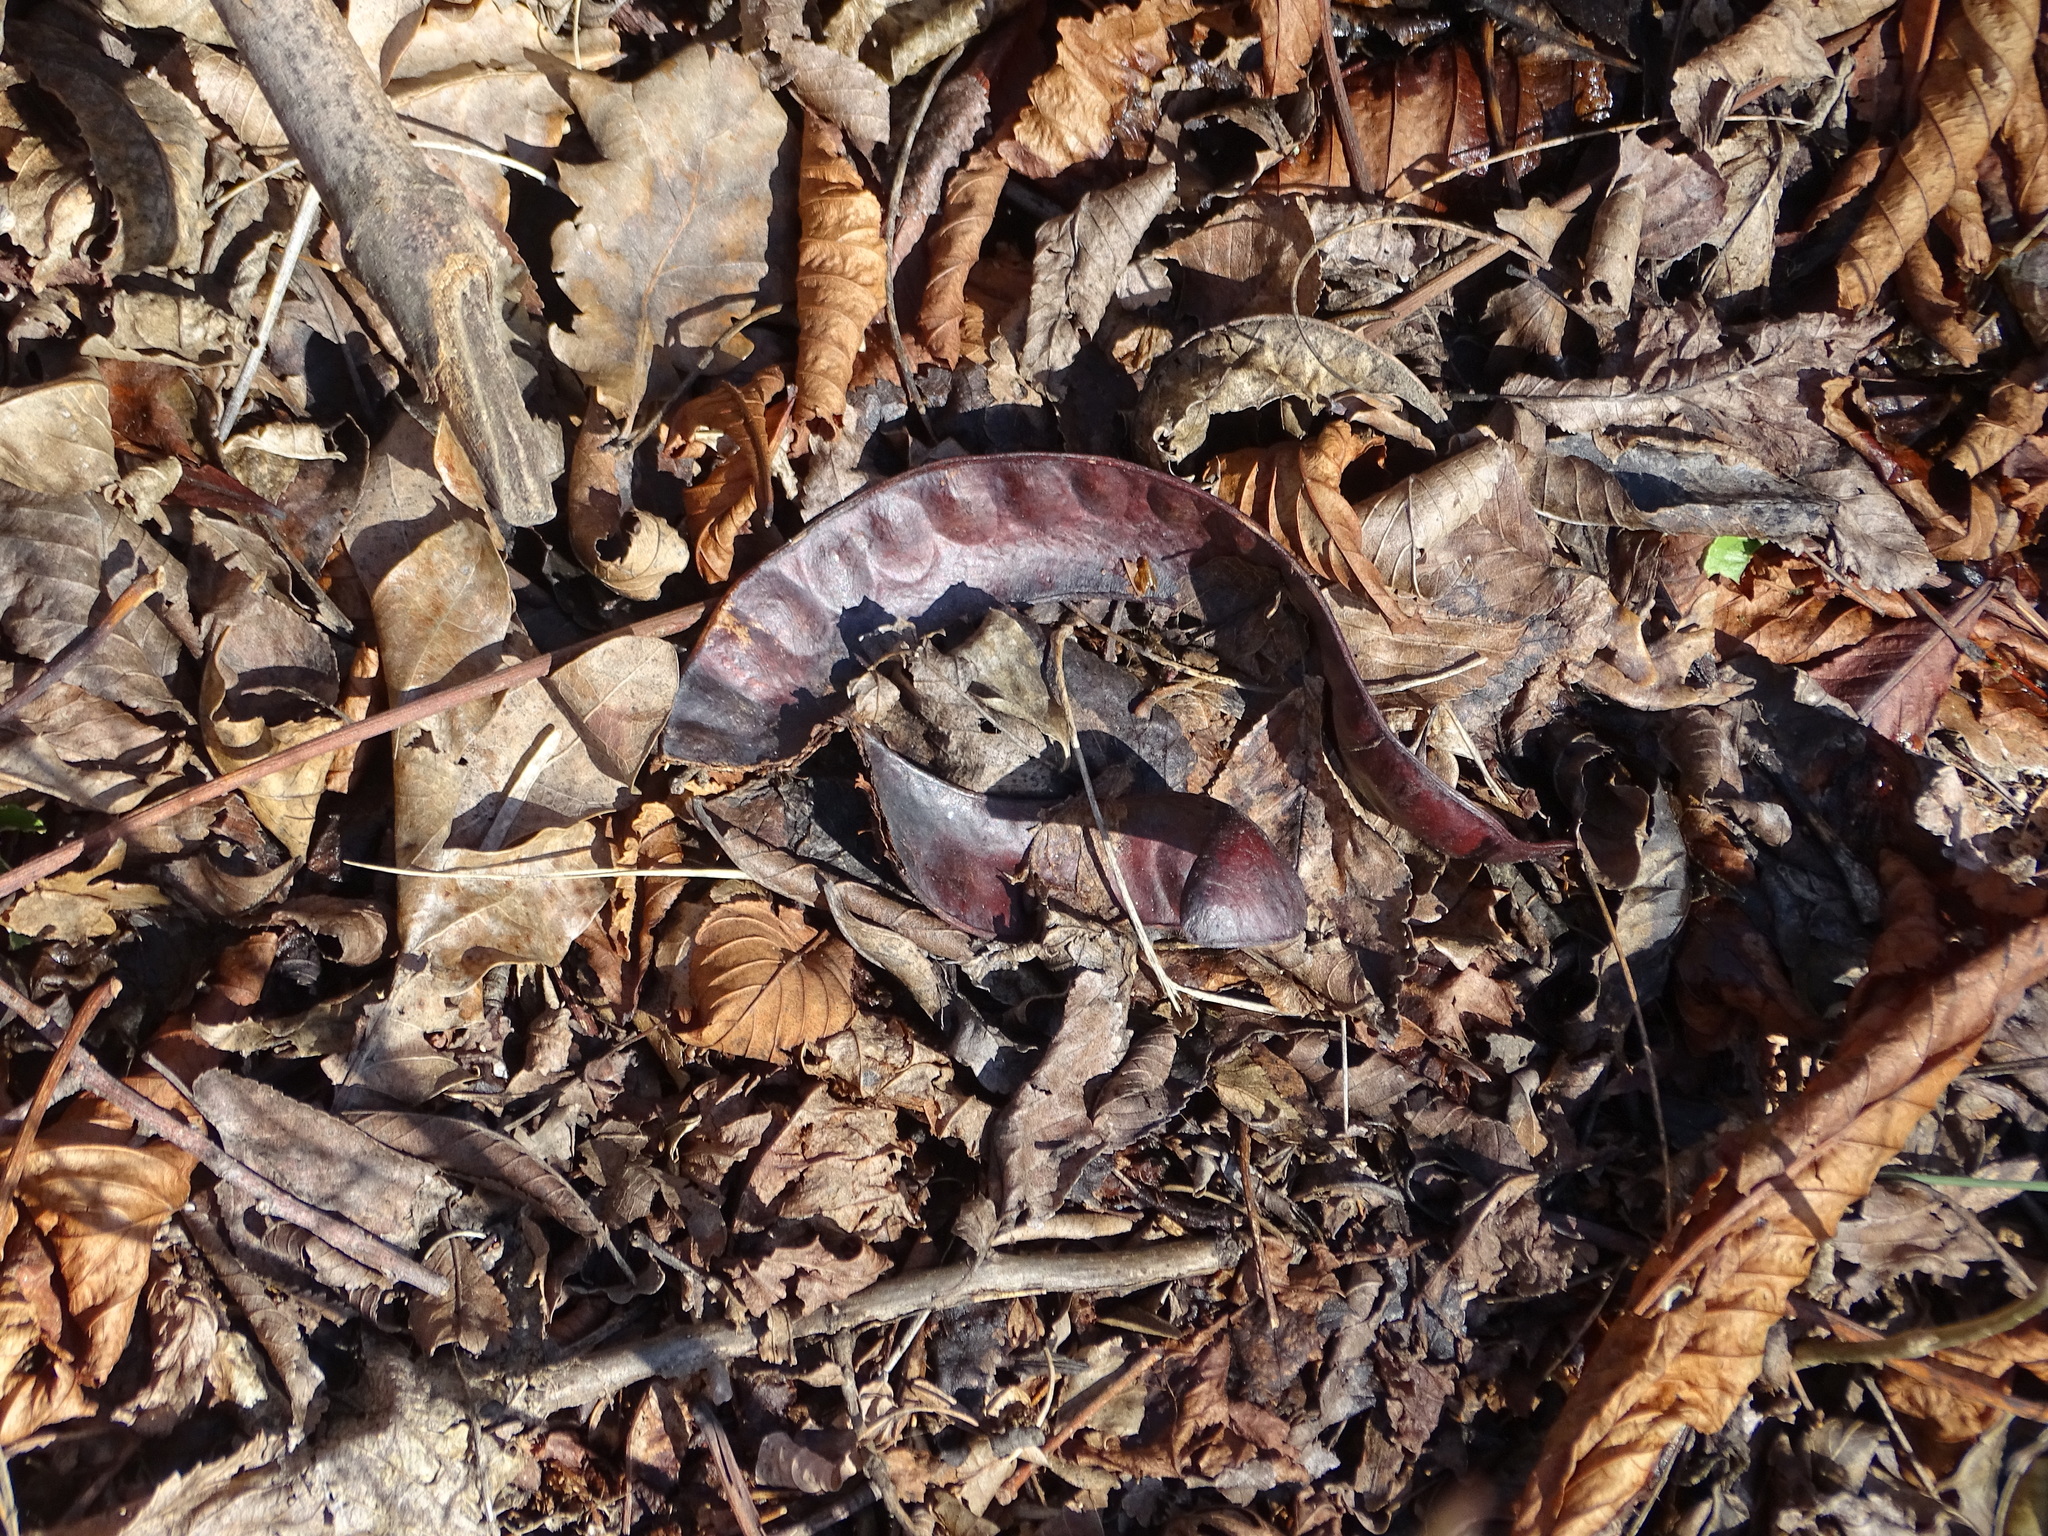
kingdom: Plantae
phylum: Tracheophyta
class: Magnoliopsida
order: Fabales
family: Fabaceae
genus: Gleditsia
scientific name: Gleditsia triacanthos
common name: Common honeylocust
